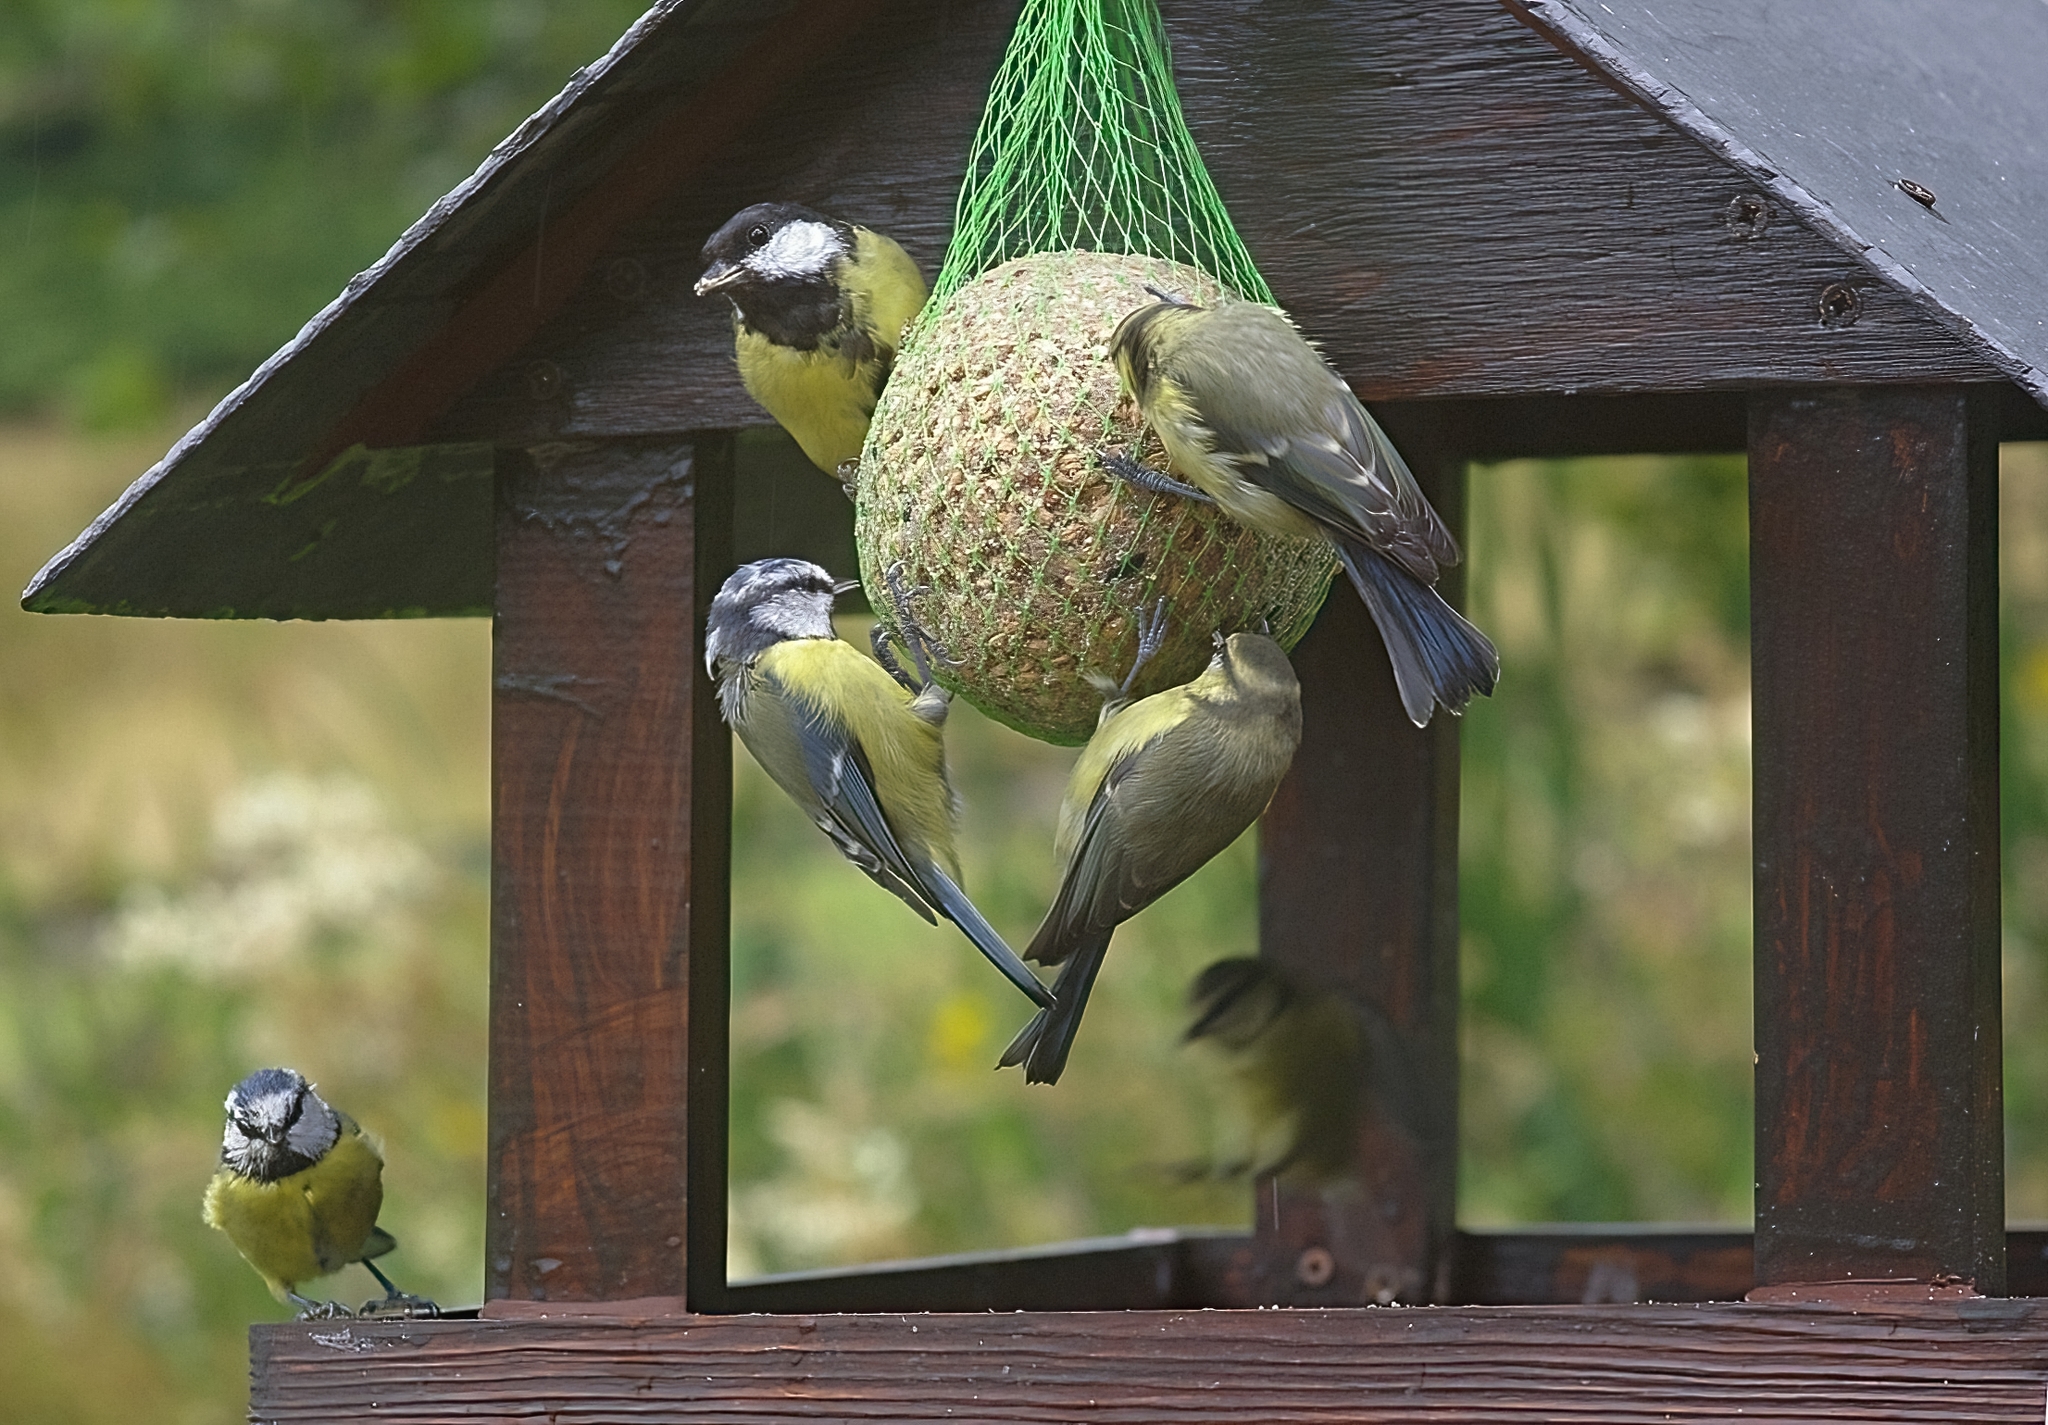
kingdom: Animalia
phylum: Chordata
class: Aves
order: Passeriformes
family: Paridae
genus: Parus
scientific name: Parus major
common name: Great tit
